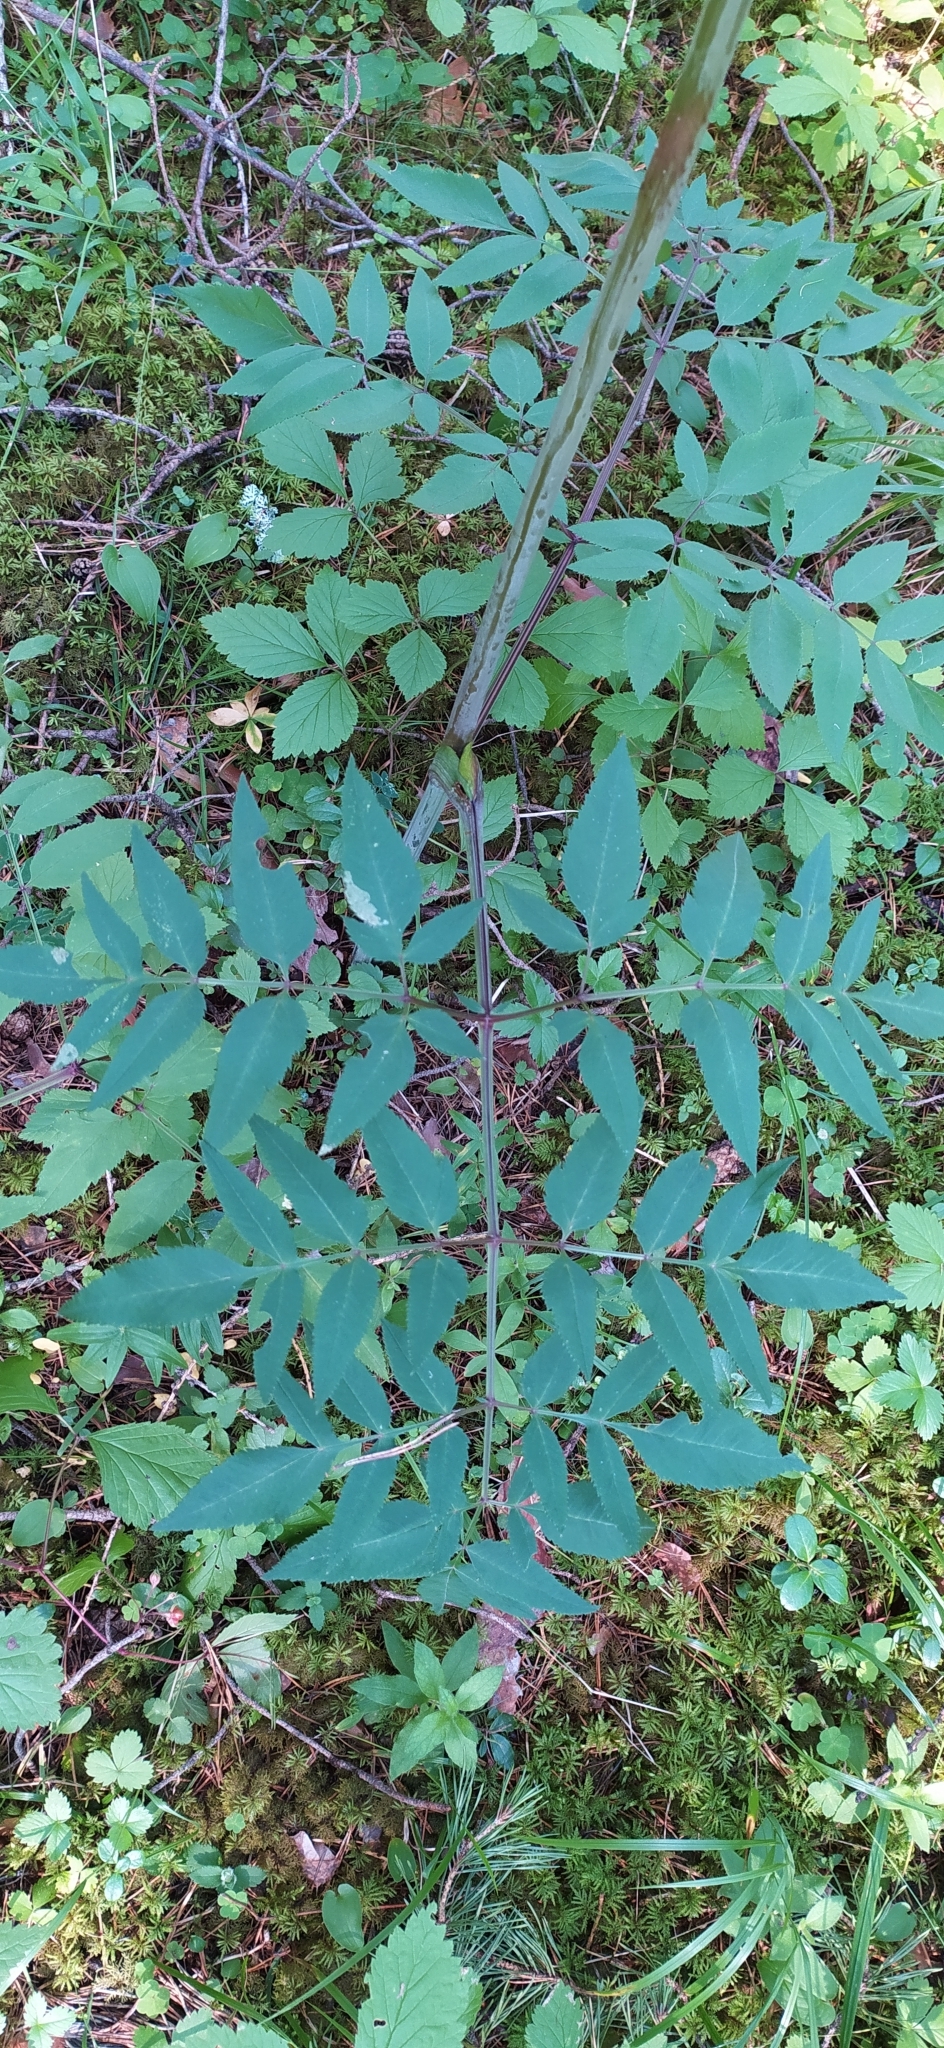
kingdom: Plantae
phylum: Tracheophyta
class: Magnoliopsida
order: Apiales
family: Apiaceae
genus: Angelica
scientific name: Angelica sylvestris
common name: Wild angelica
